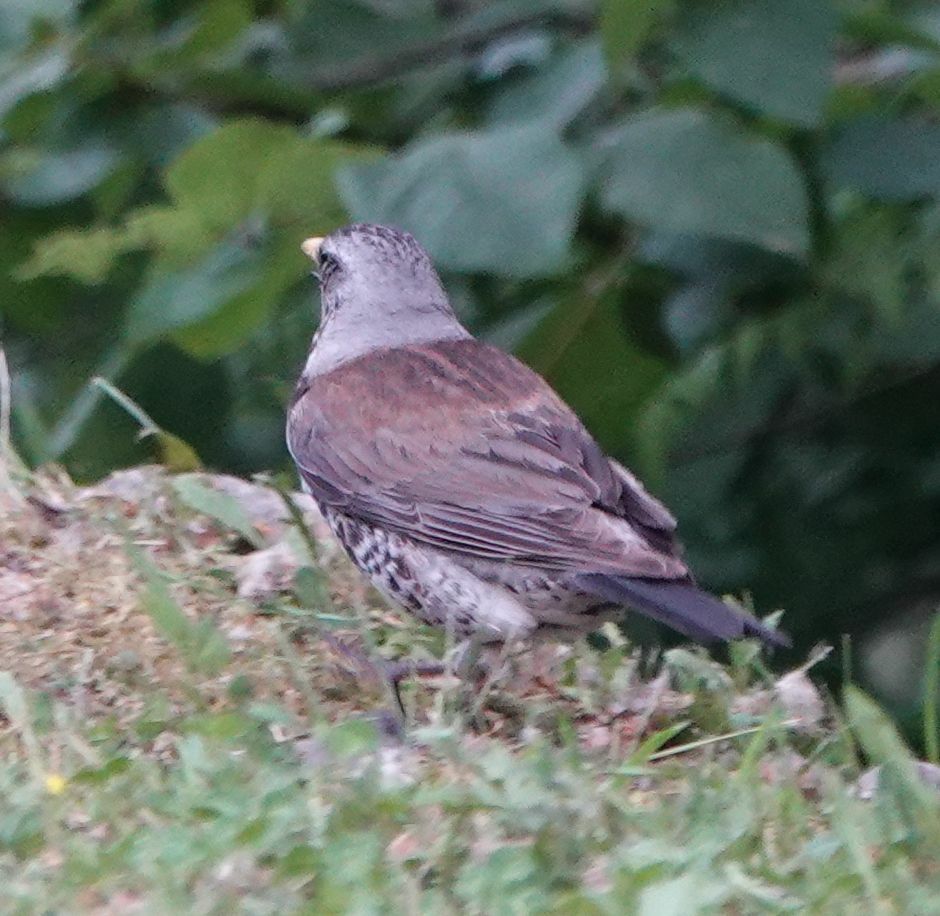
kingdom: Animalia
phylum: Chordata
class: Aves
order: Passeriformes
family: Turdidae
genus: Turdus
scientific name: Turdus pilaris
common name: Fieldfare
